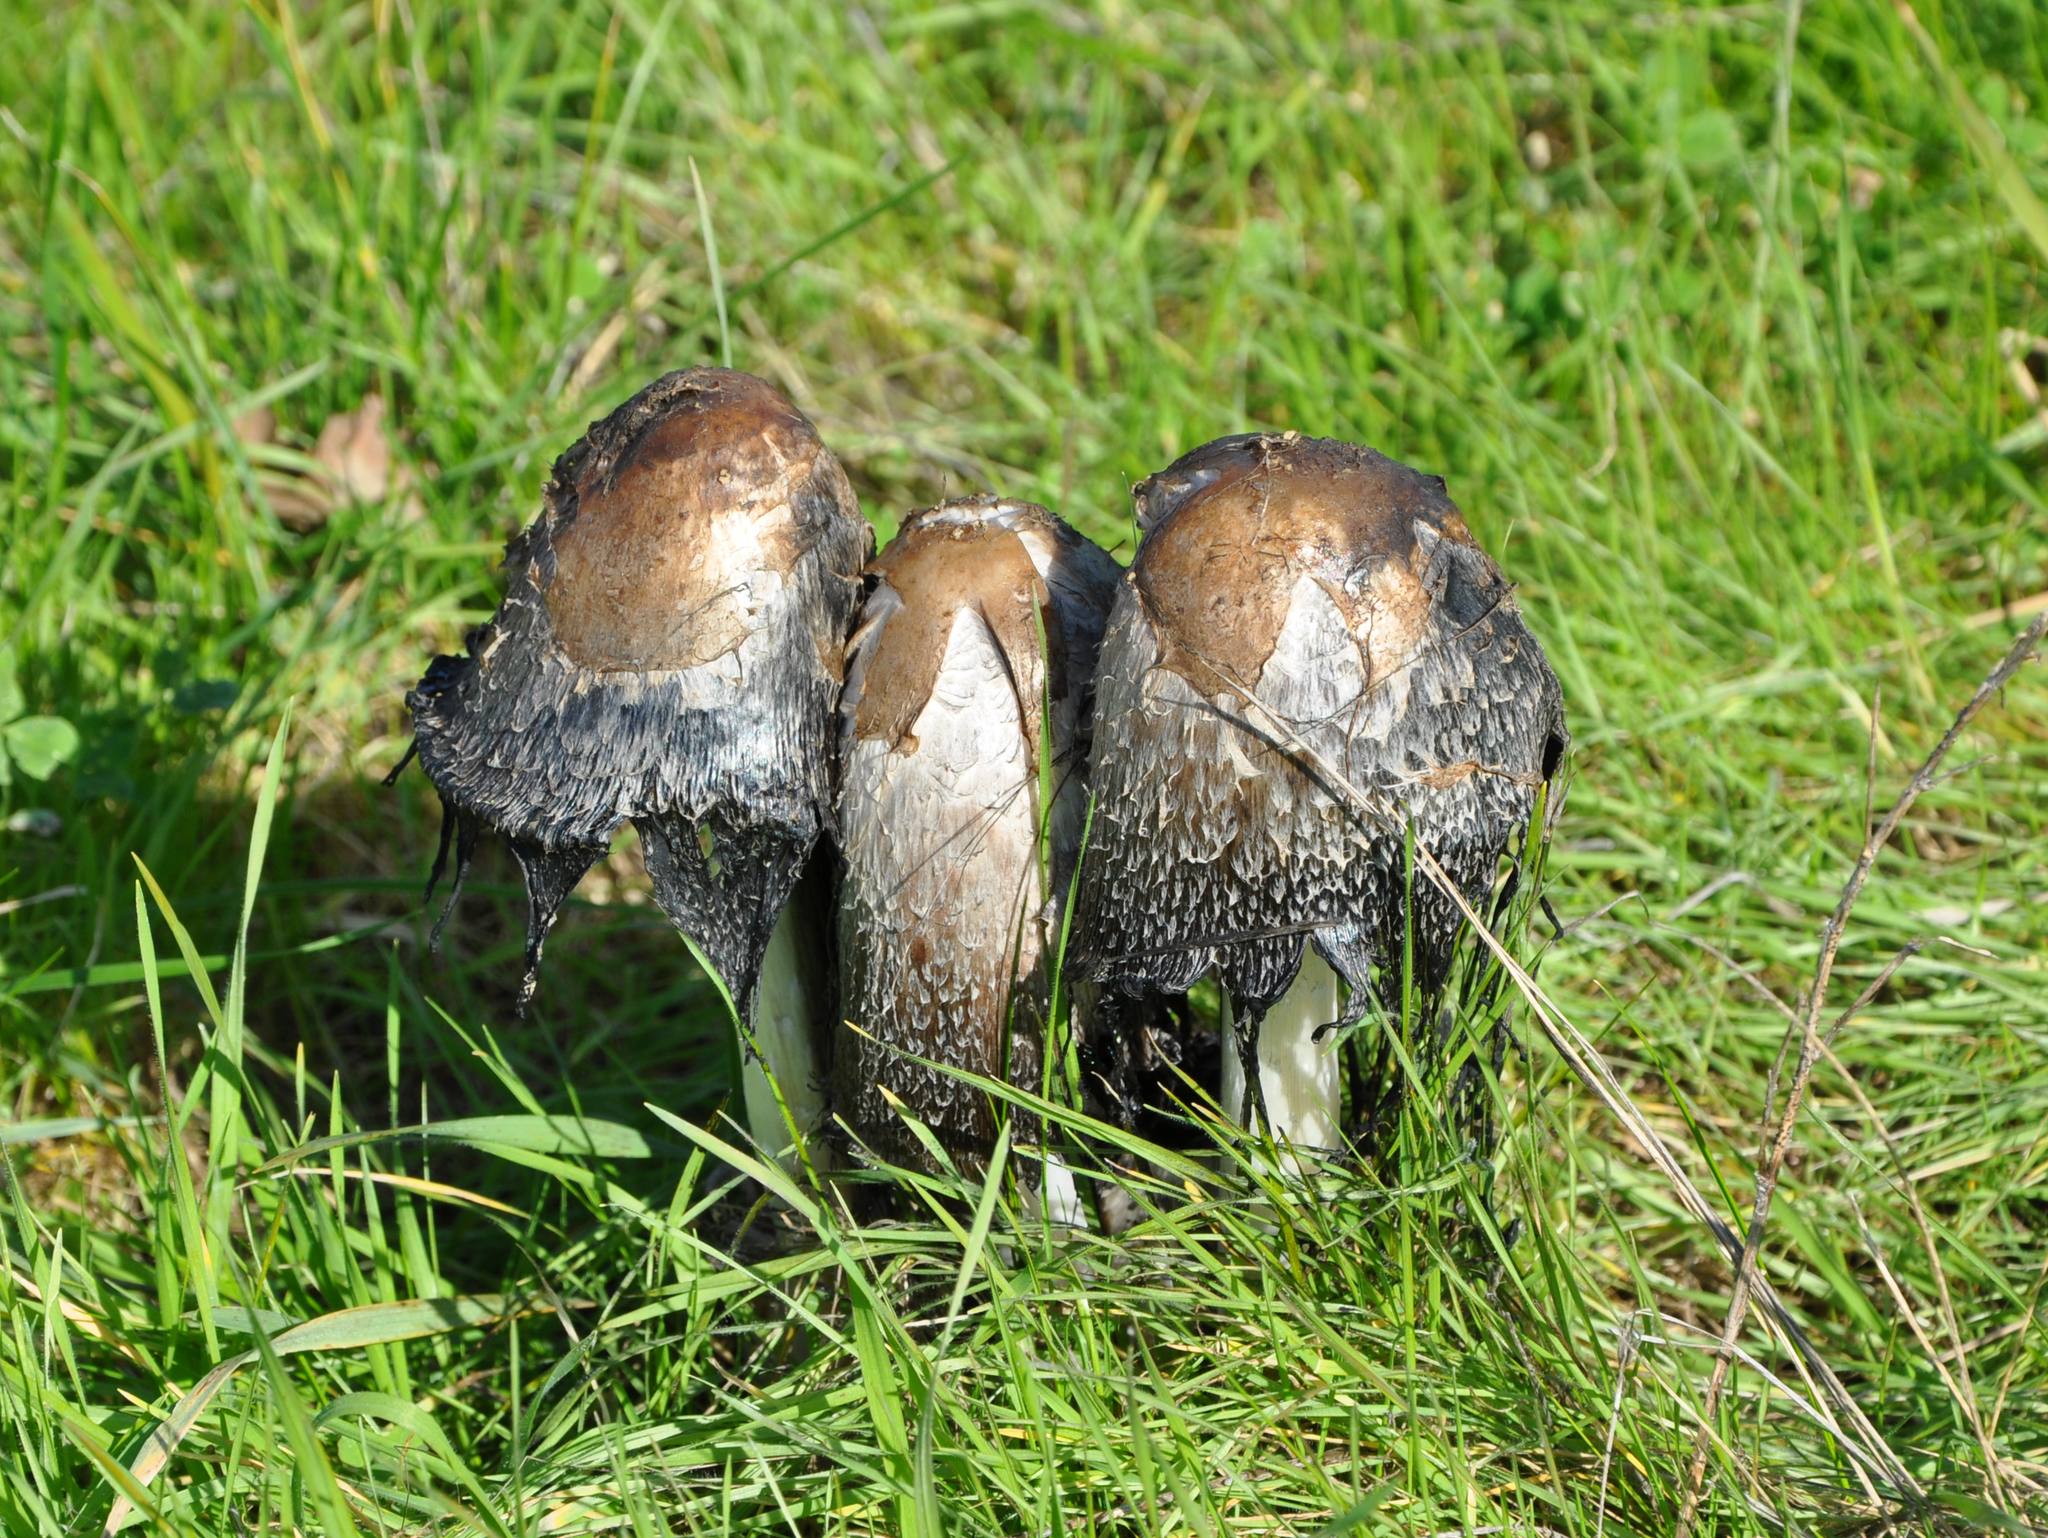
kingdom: Fungi
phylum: Basidiomycota
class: Agaricomycetes
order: Agaricales
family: Agaricaceae
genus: Coprinus
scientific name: Coprinus comatus
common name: Lawyer's wig
